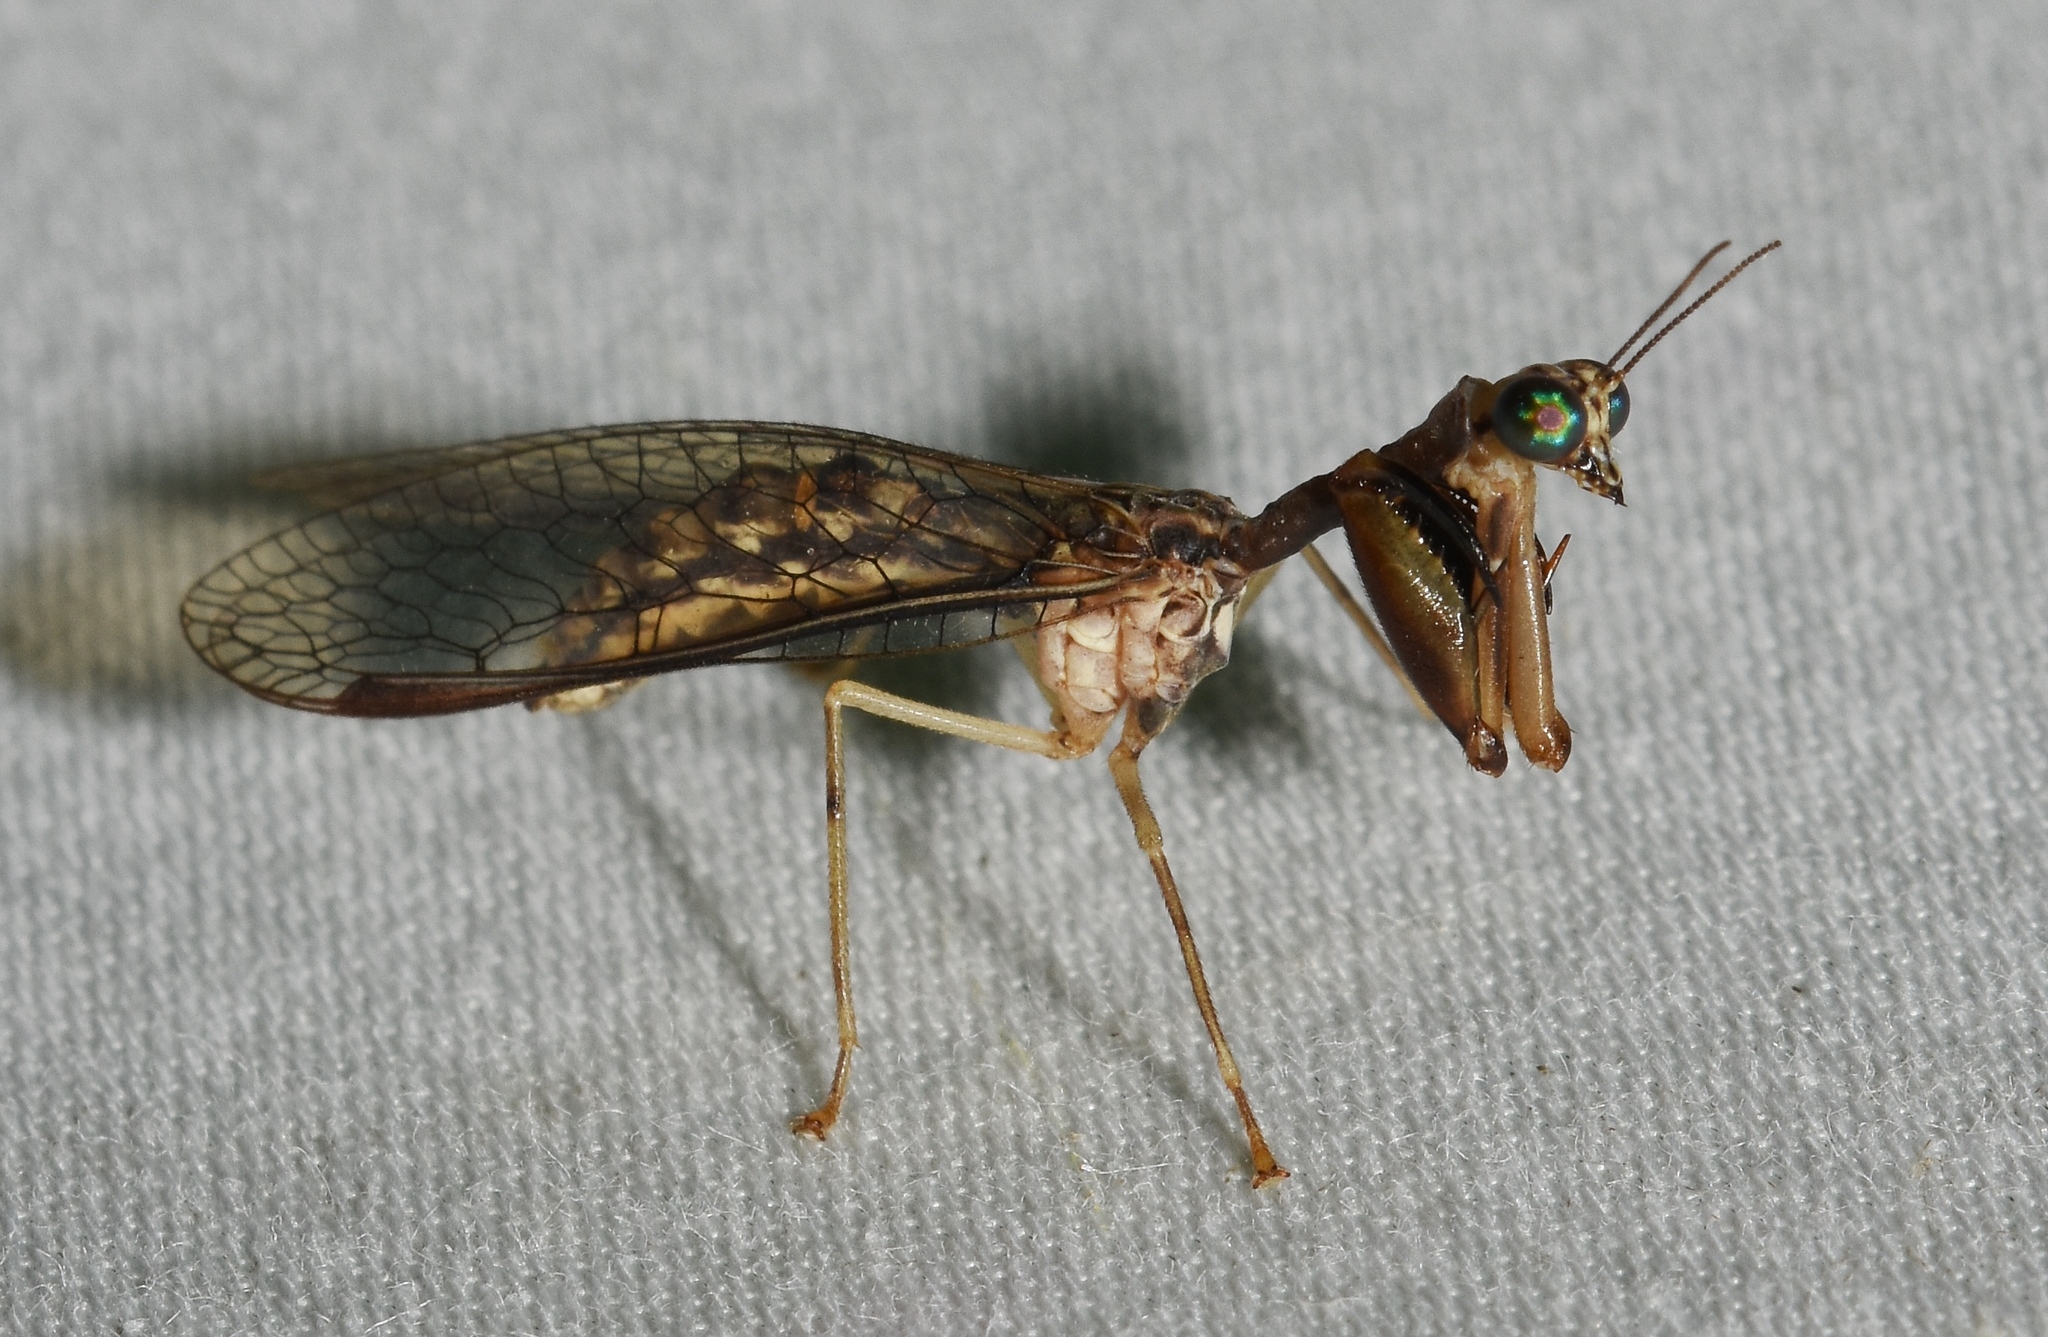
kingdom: Animalia
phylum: Arthropoda
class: Insecta
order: Neuroptera
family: Mantispidae
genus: Dicromantispa
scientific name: Dicromantispa sayi
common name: Say's mantidfly
